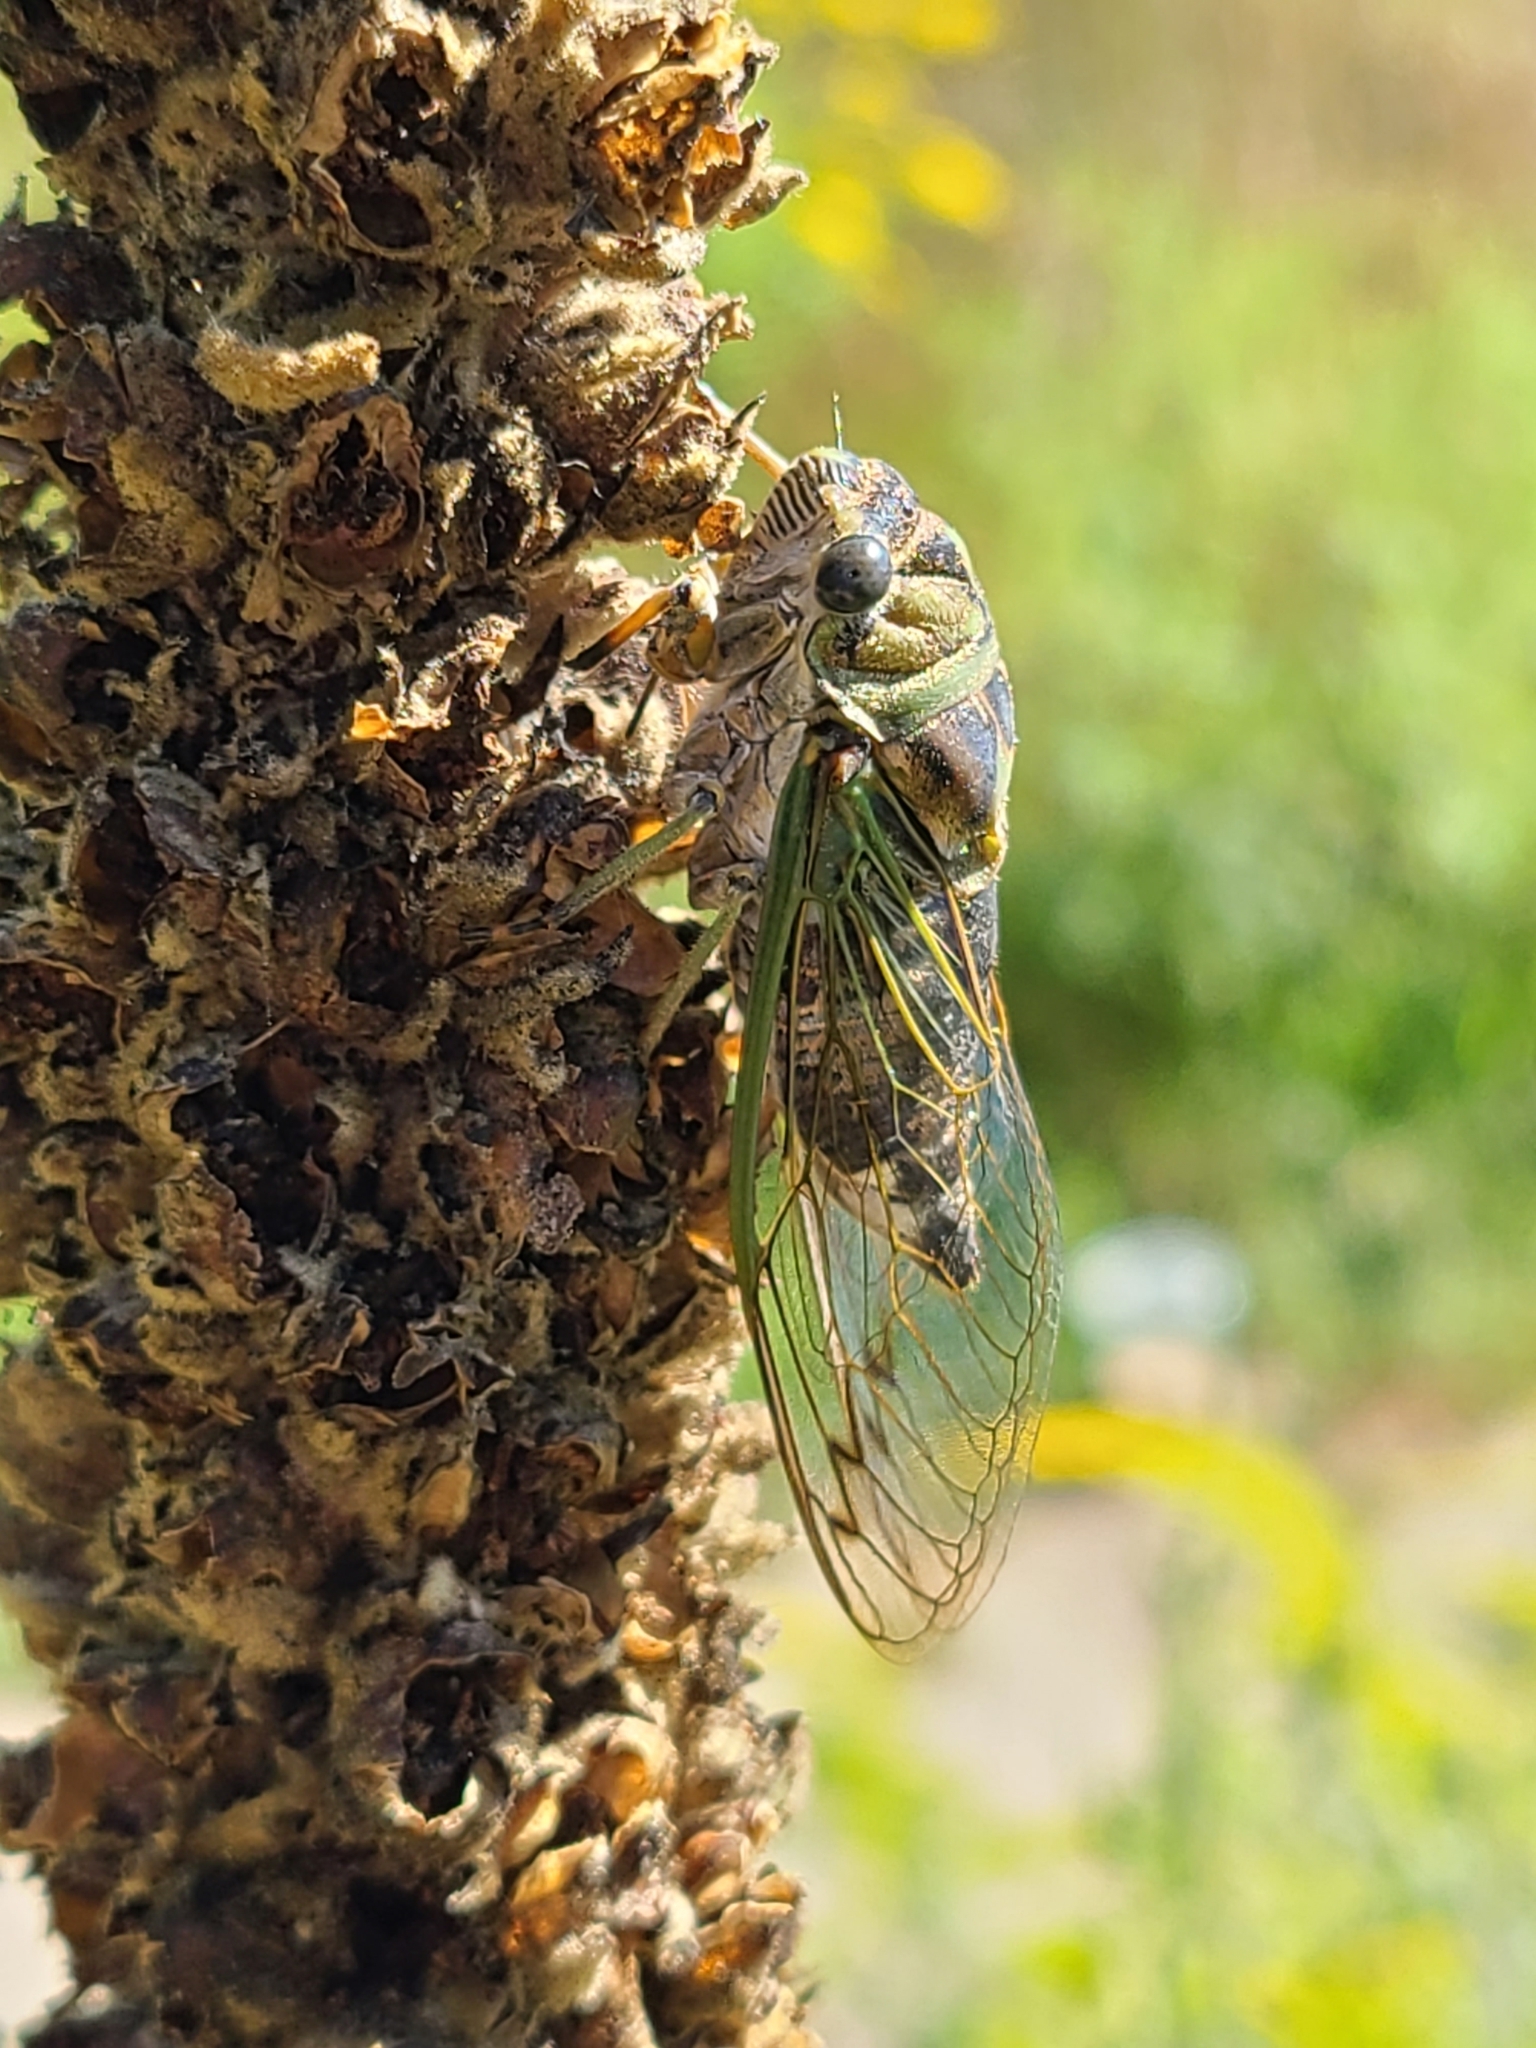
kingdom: Animalia
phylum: Arthropoda
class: Insecta
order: Hemiptera
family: Cicadidae
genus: Neotibicen
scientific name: Neotibicen canicularis
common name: God-day cicada
